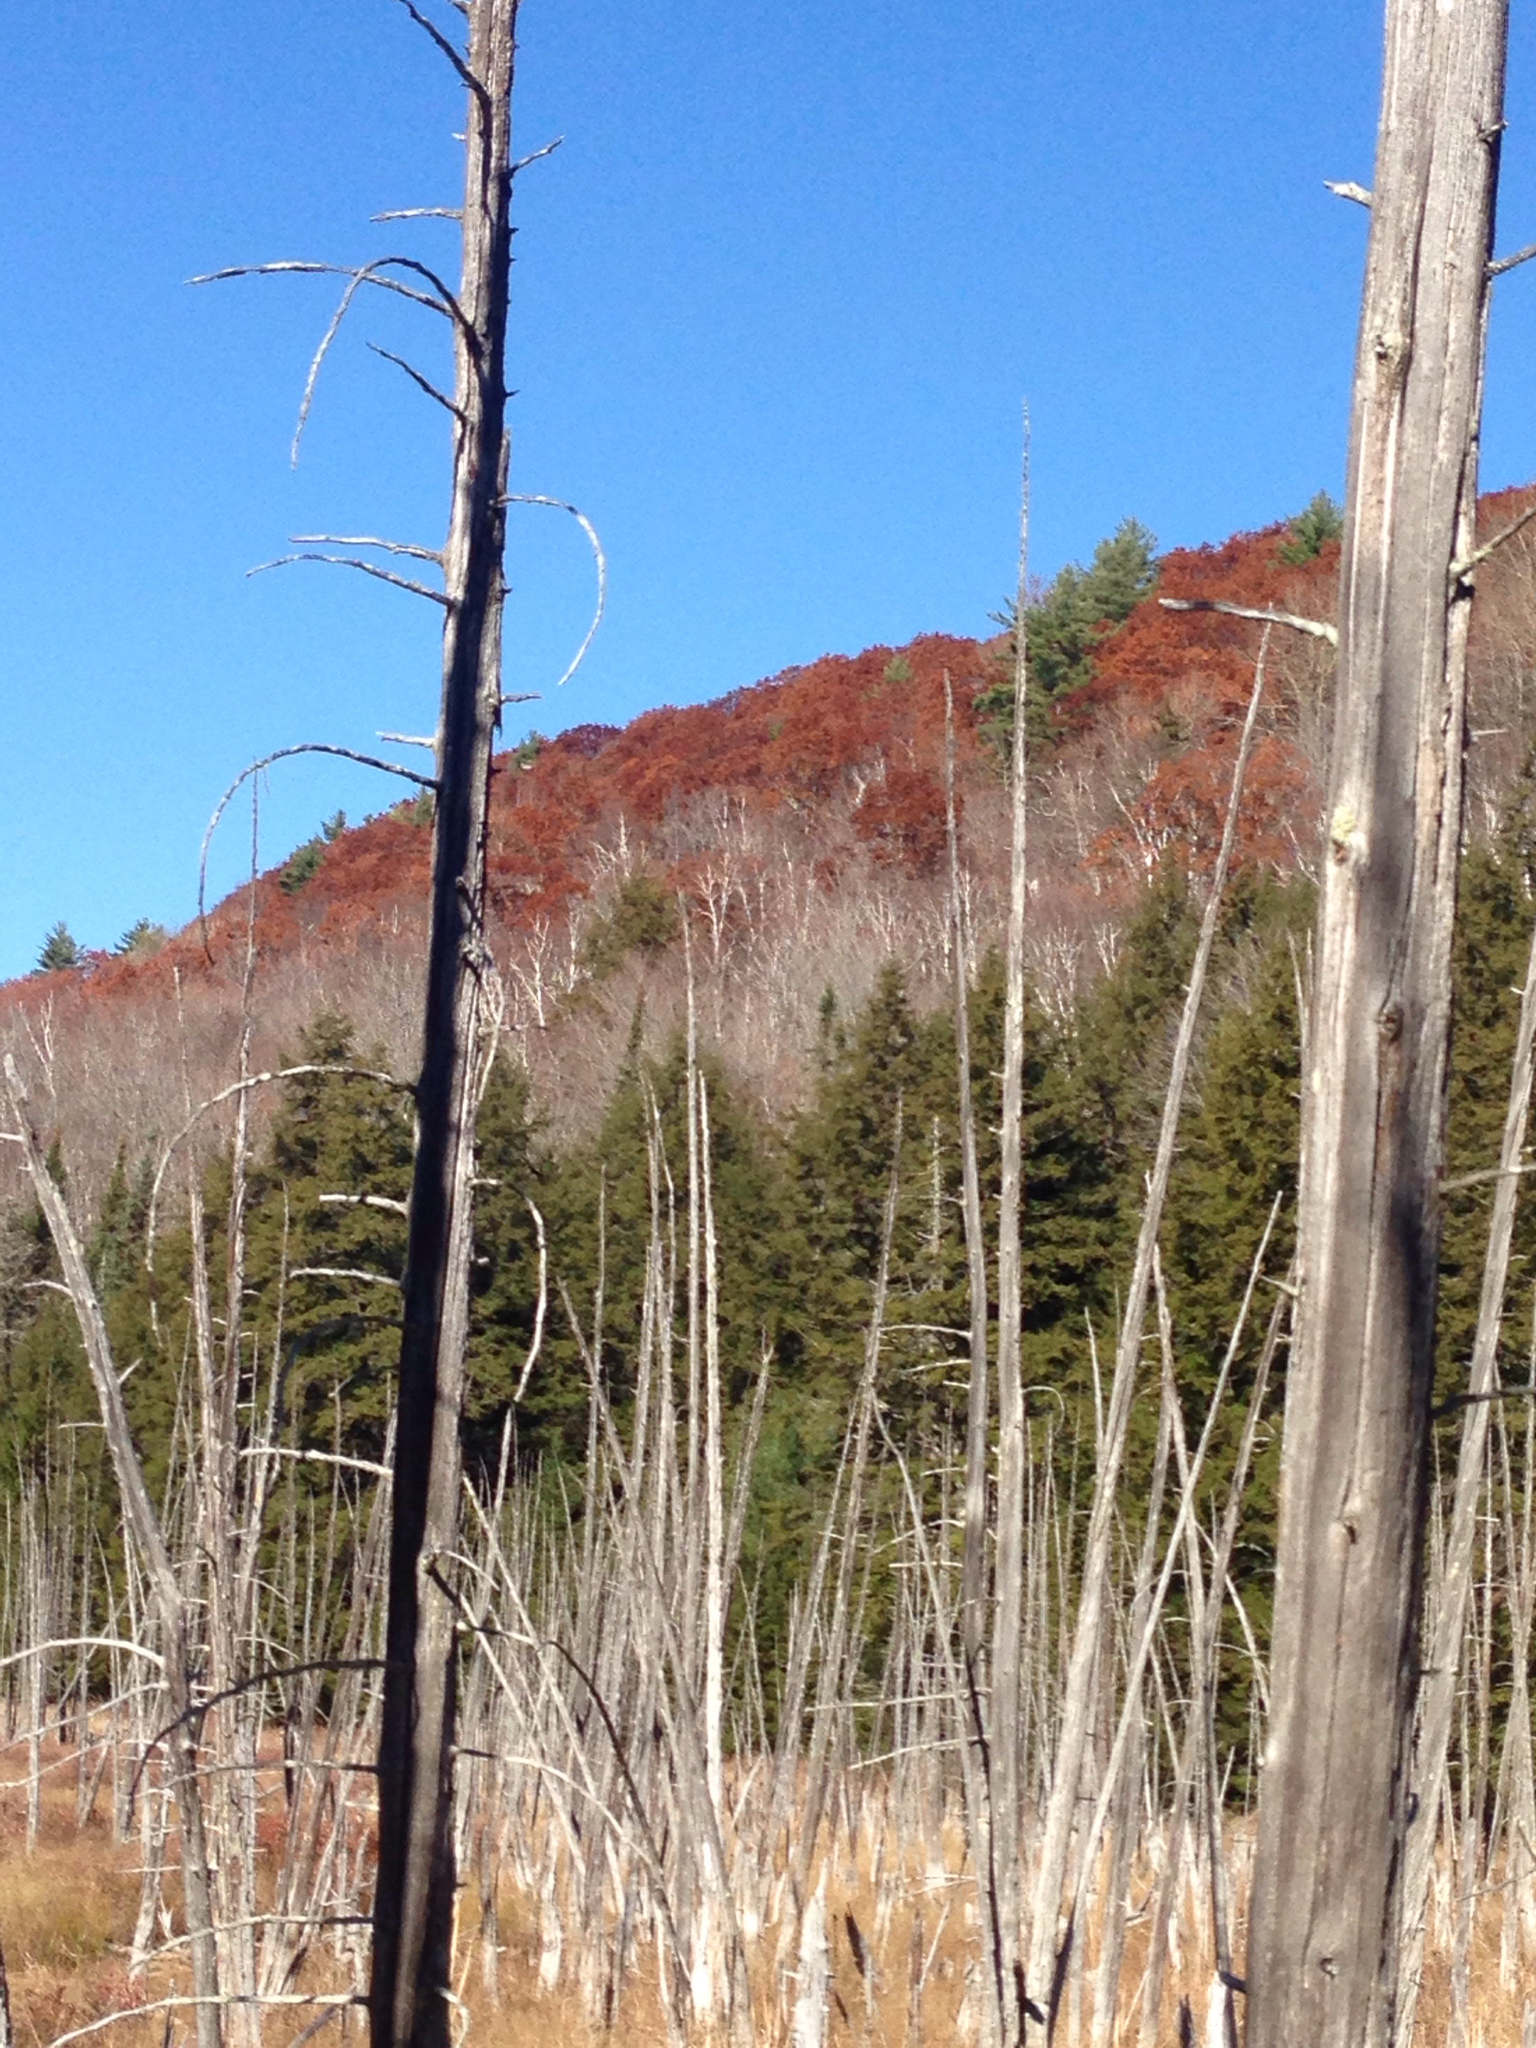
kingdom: Plantae
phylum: Tracheophyta
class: Pinopsida
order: Pinales
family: Pinaceae
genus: Pinus
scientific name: Pinus strobus
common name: Weymouth pine
